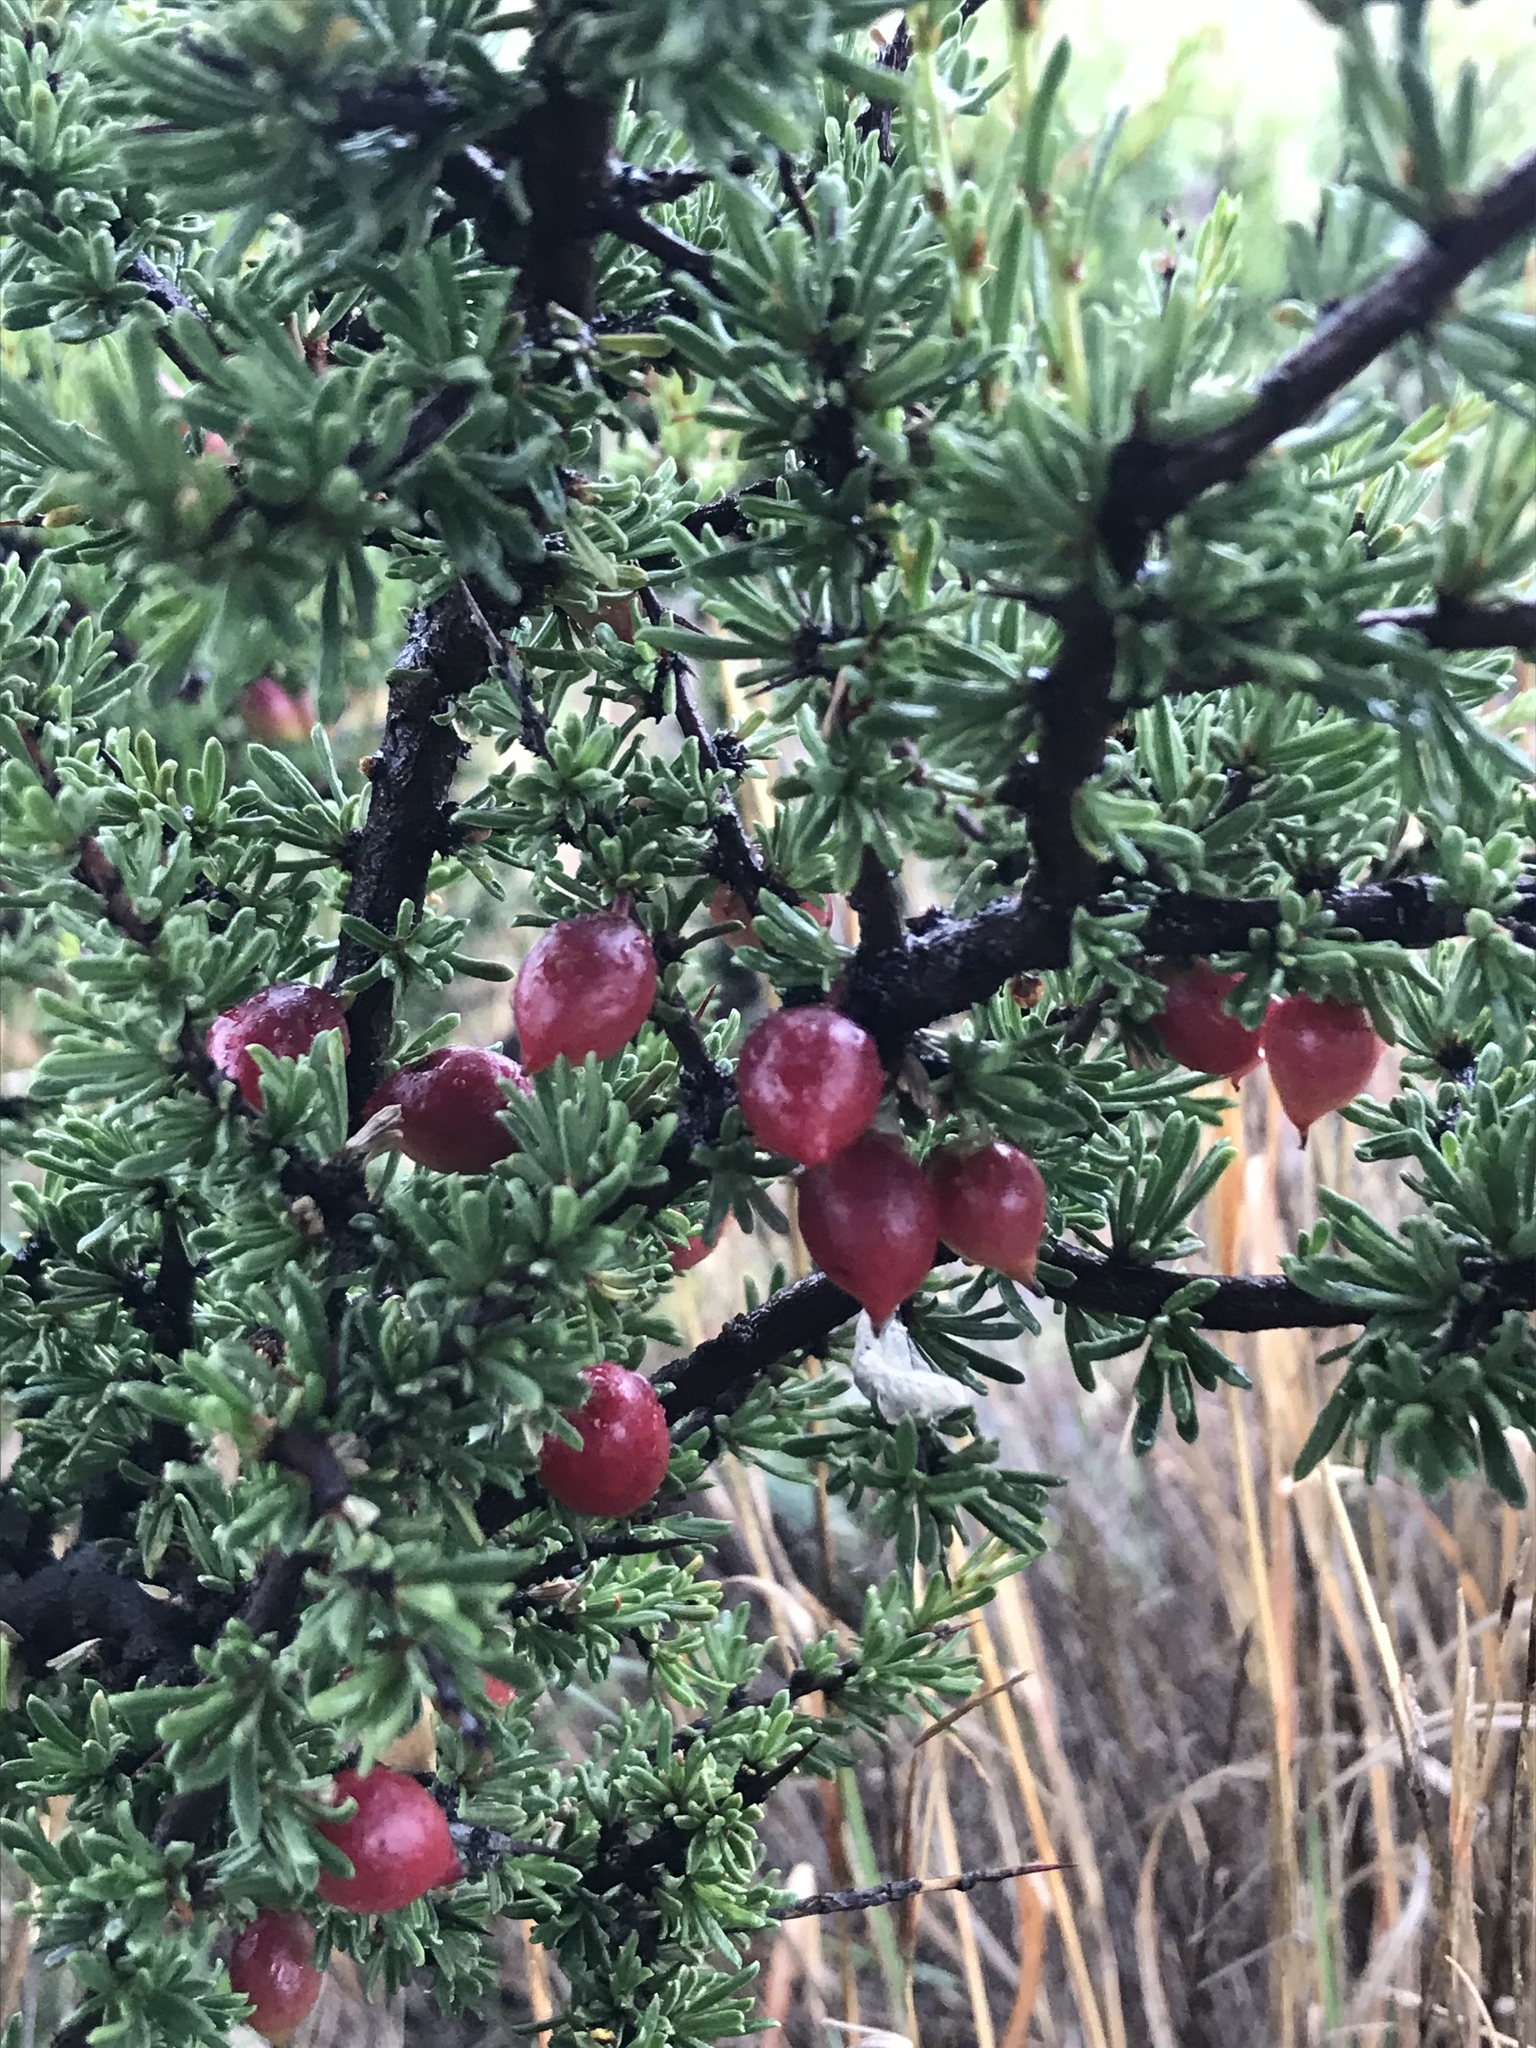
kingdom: Plantae
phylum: Tracheophyta
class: Magnoliopsida
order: Rosales
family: Rhamnaceae
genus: Condalia
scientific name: Condalia ericoides
